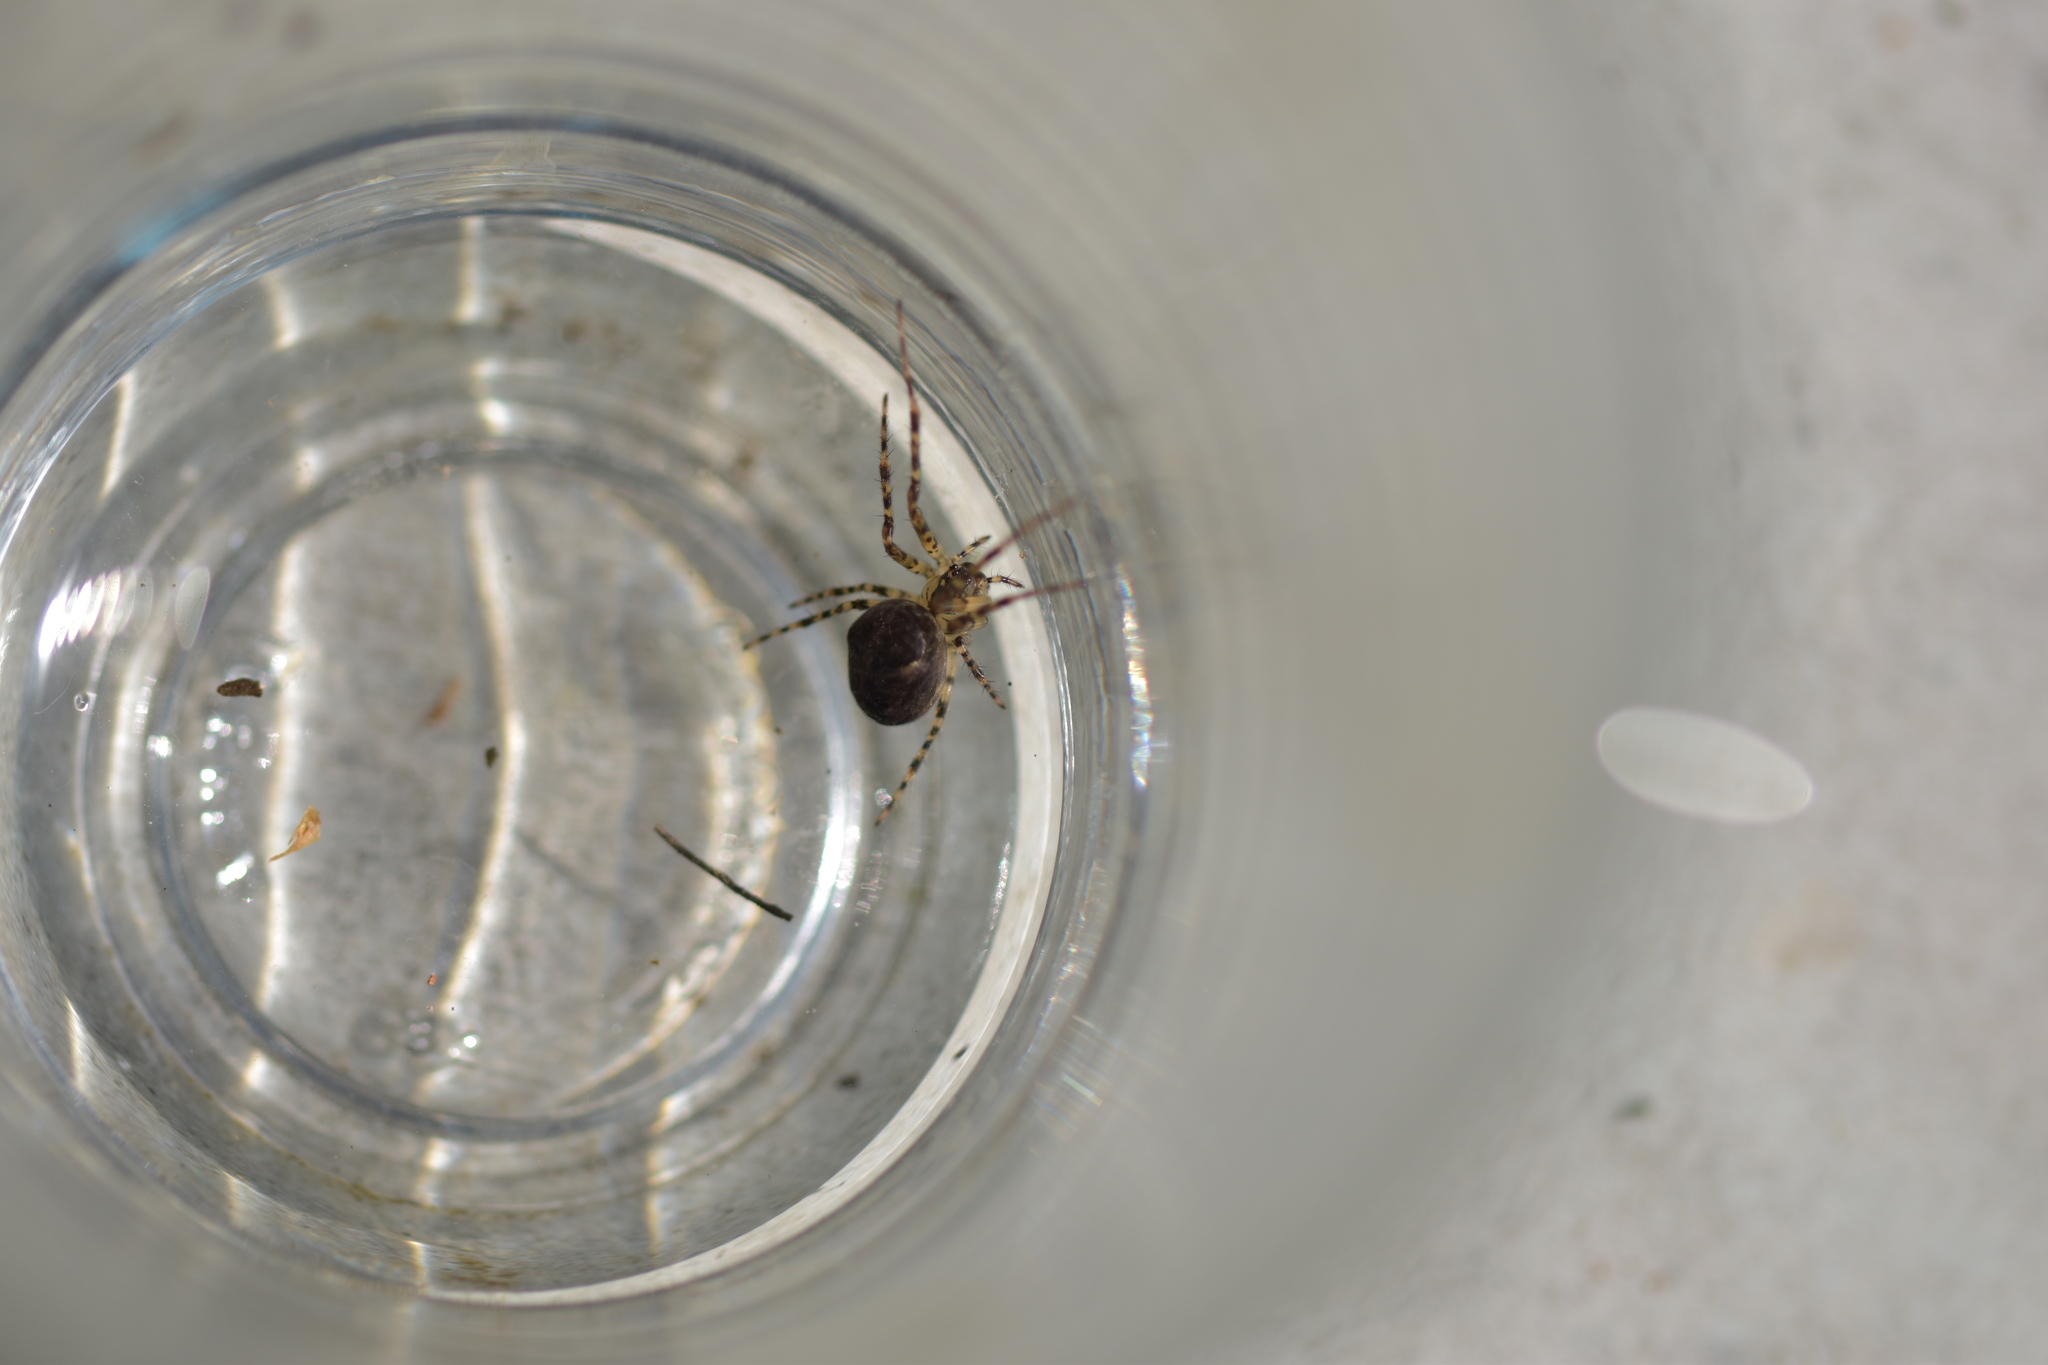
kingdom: Animalia
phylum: Arthropoda
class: Arachnida
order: Araneae
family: Tetragnathidae
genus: Metellina
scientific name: Metellina merianae
